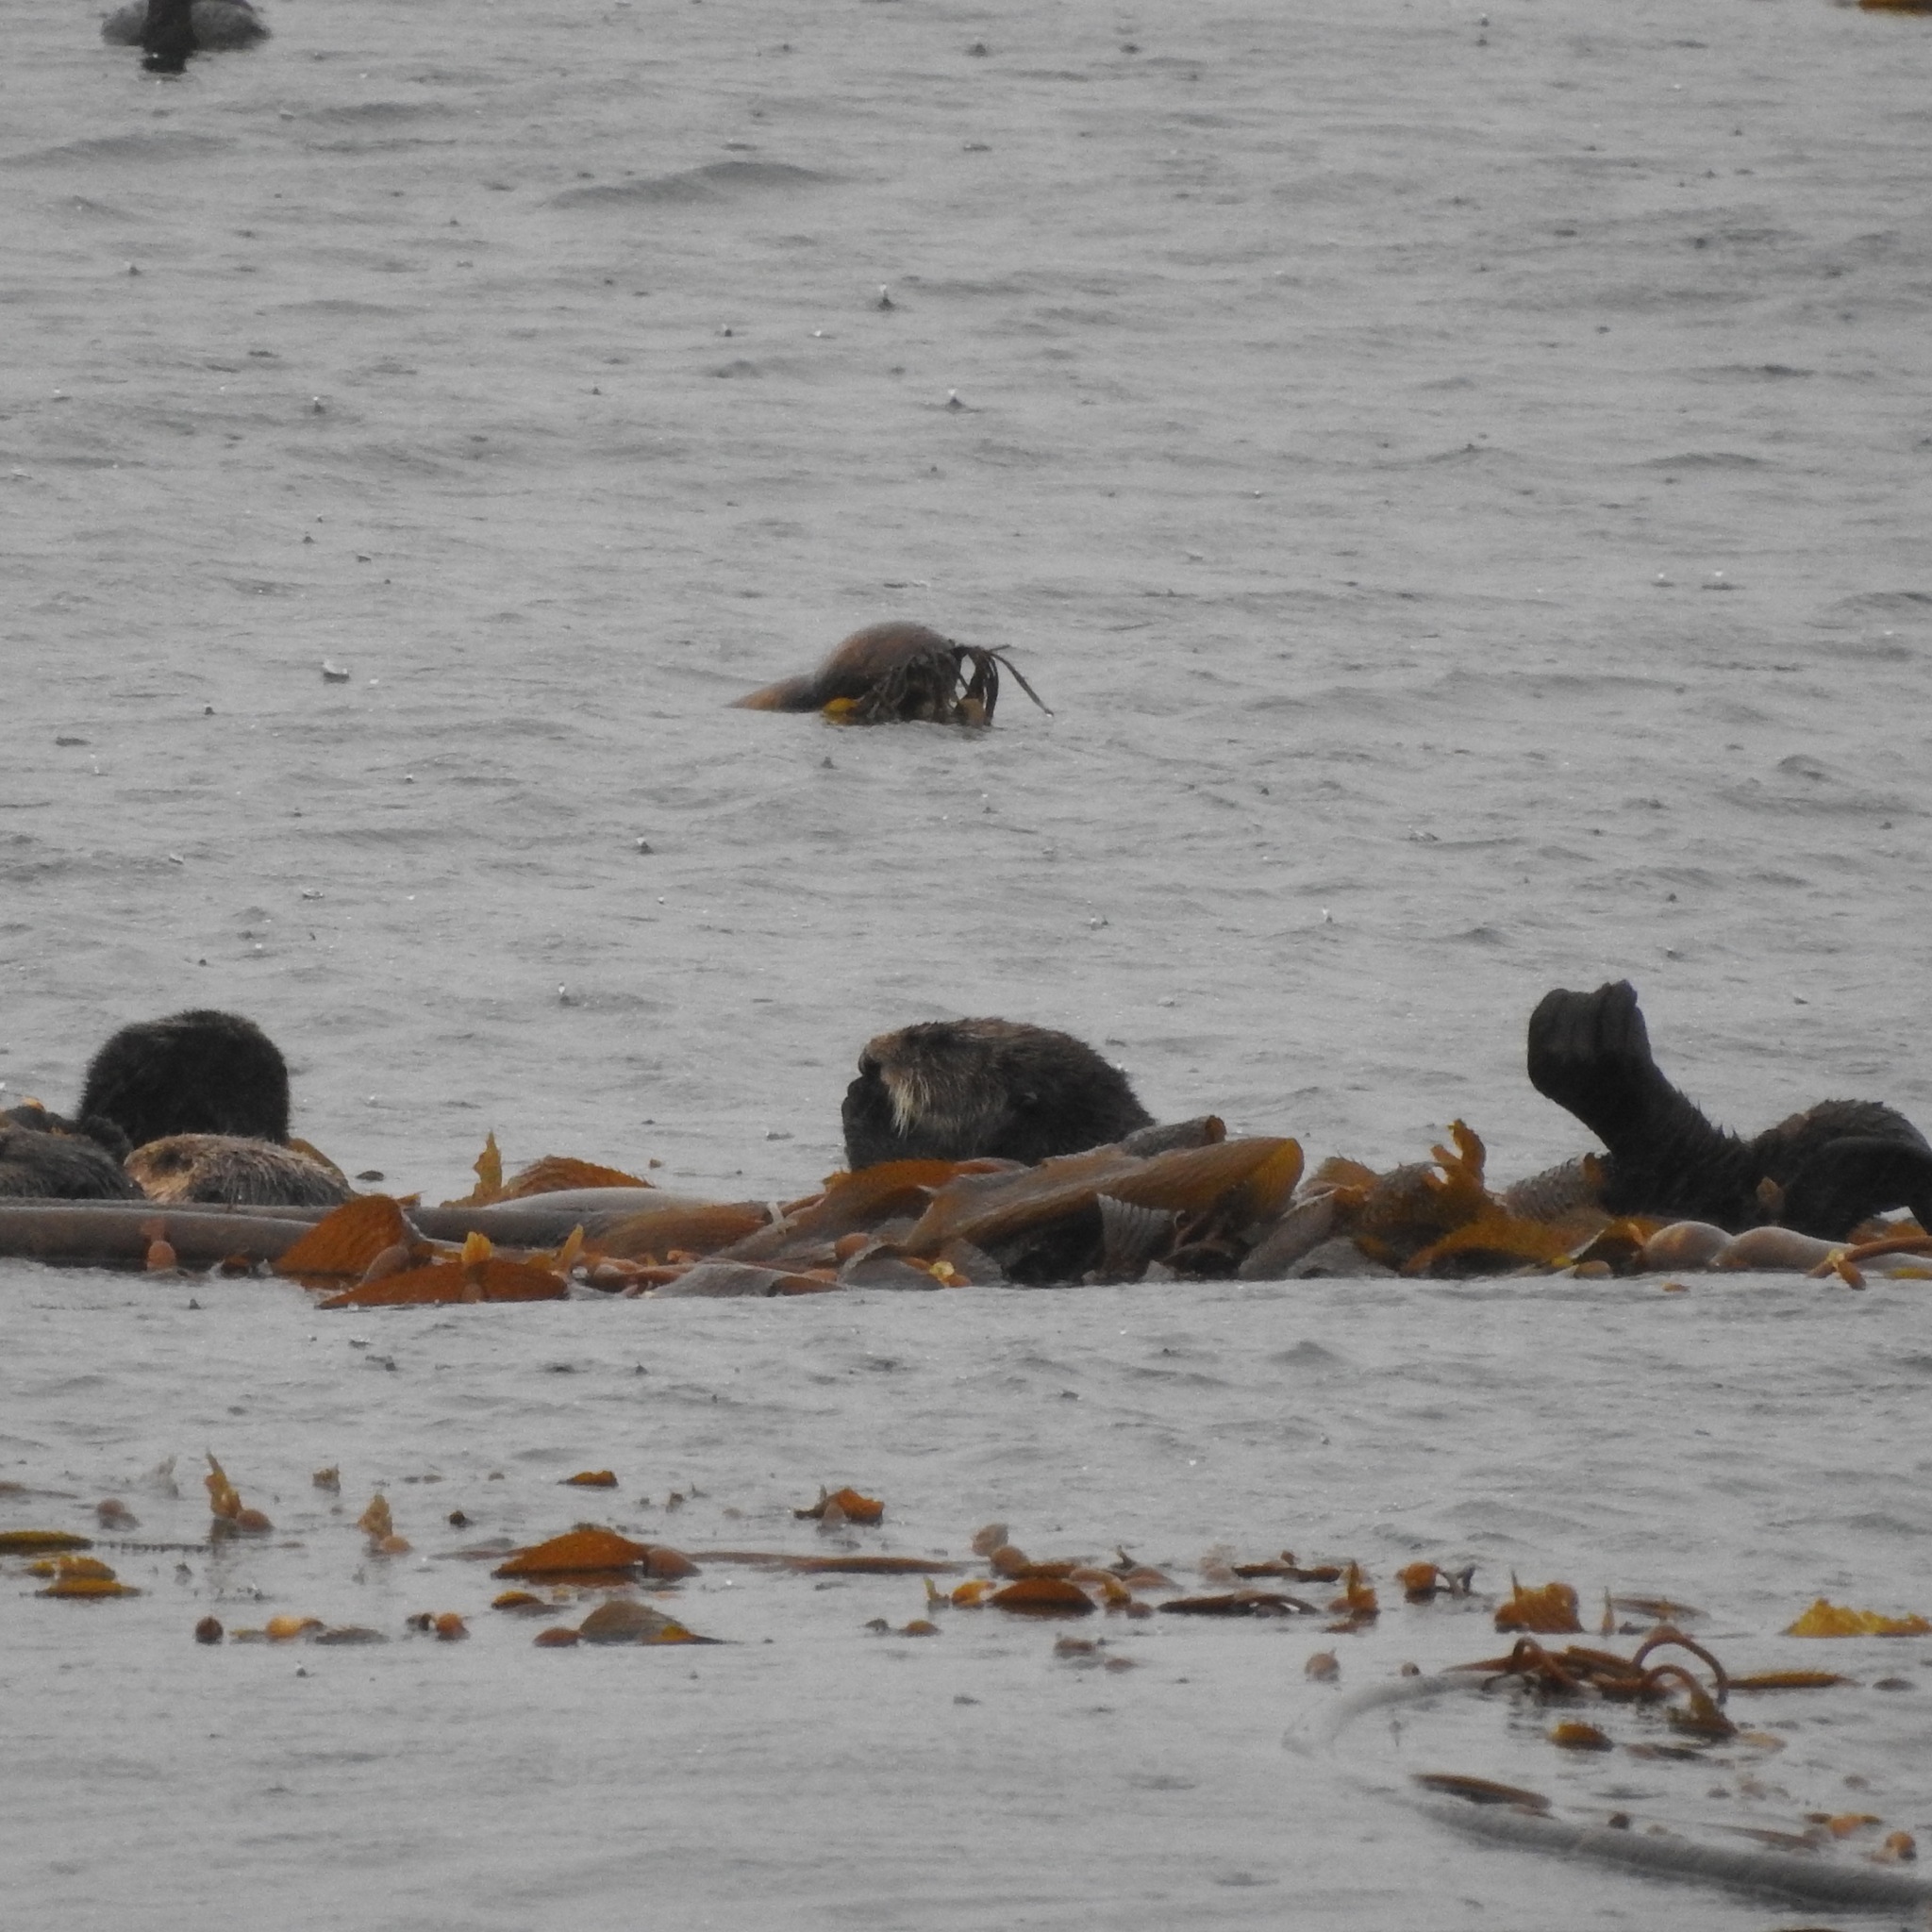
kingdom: Chromista
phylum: Ochrophyta
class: Phaeophyceae
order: Laminariales
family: Laminariaceae
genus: Macrocystis
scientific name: Macrocystis pyrifera
